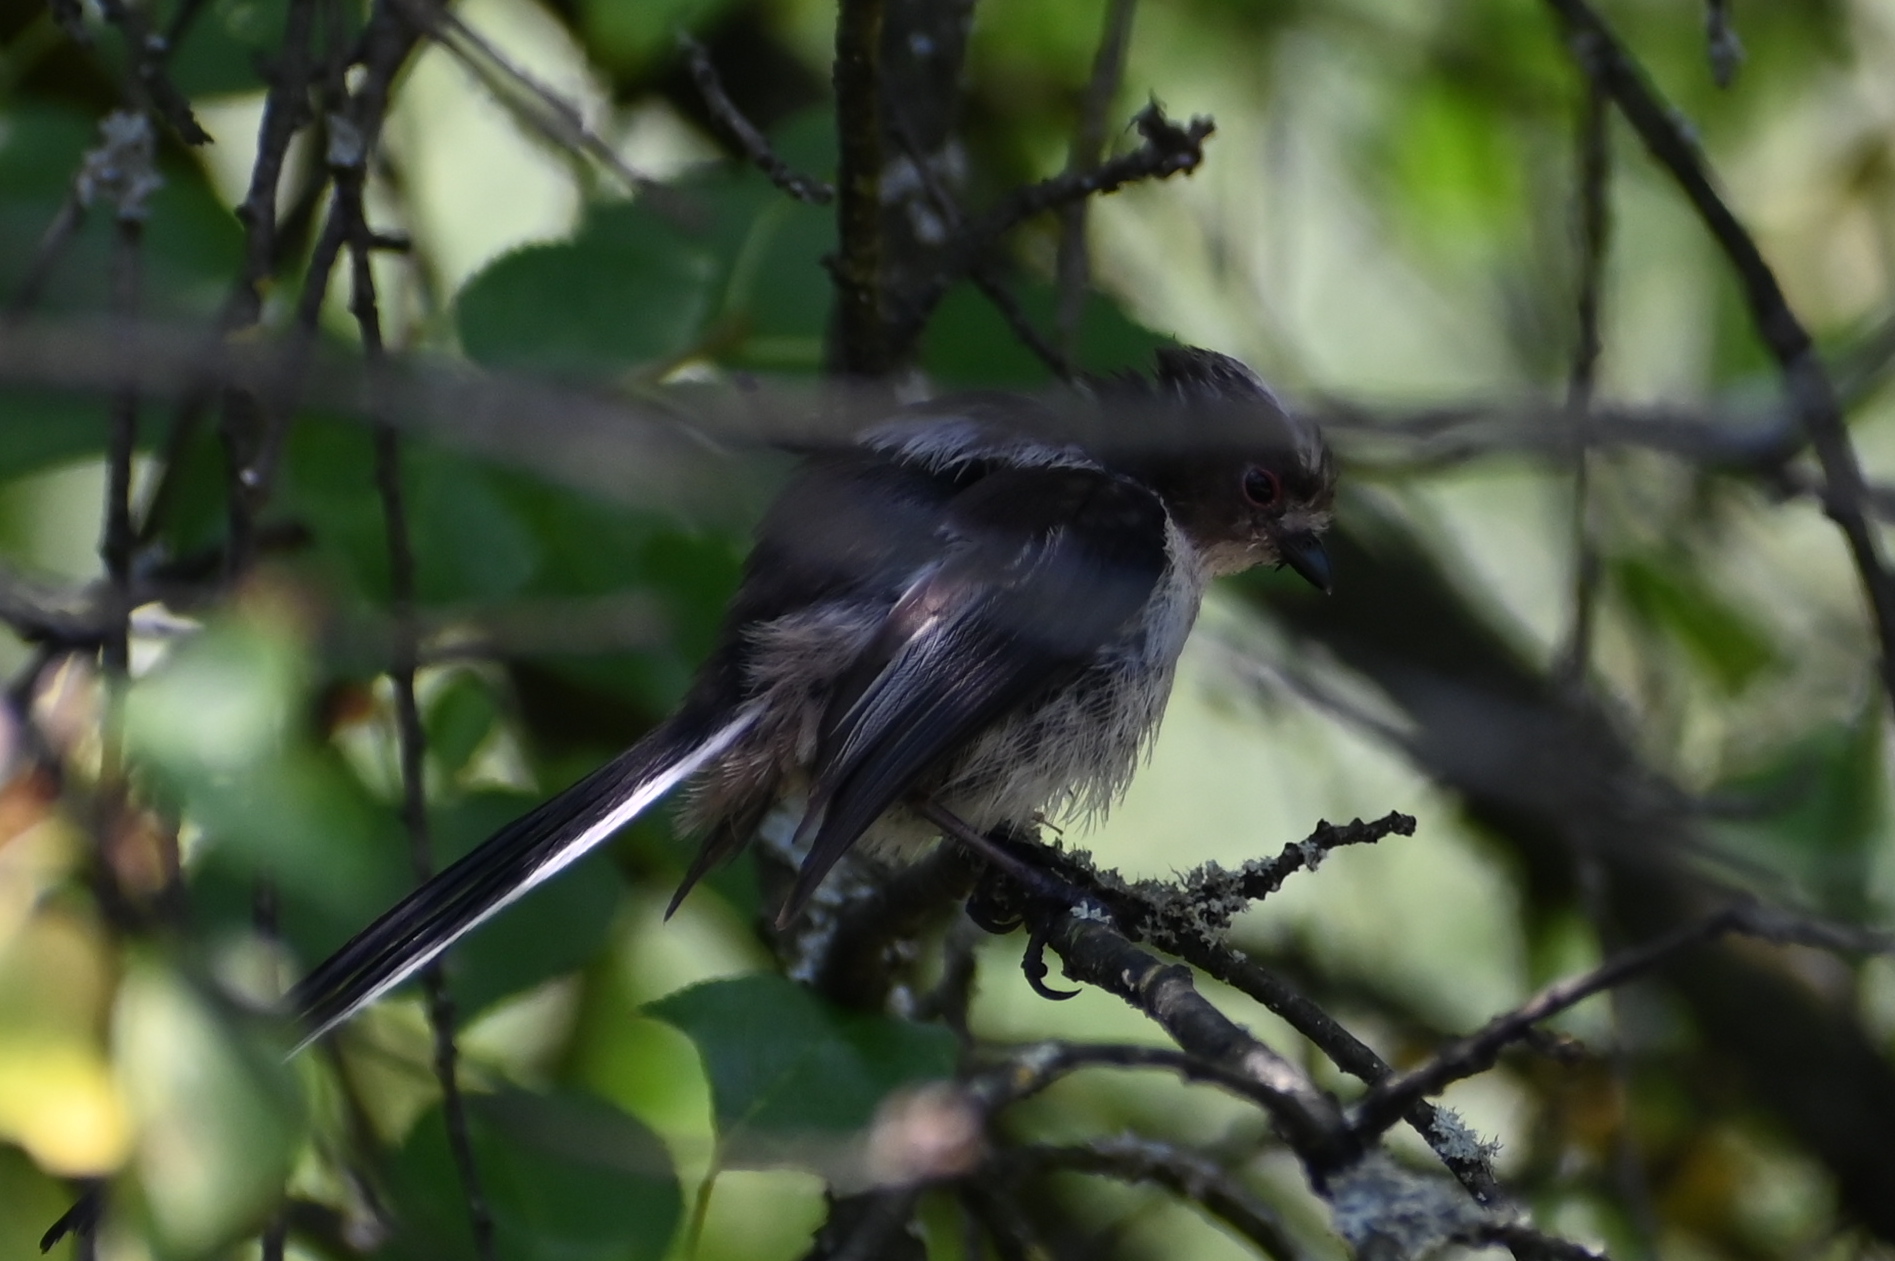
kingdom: Animalia
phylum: Chordata
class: Aves
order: Passeriformes
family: Aegithalidae
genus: Aegithalos
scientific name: Aegithalos caudatus
